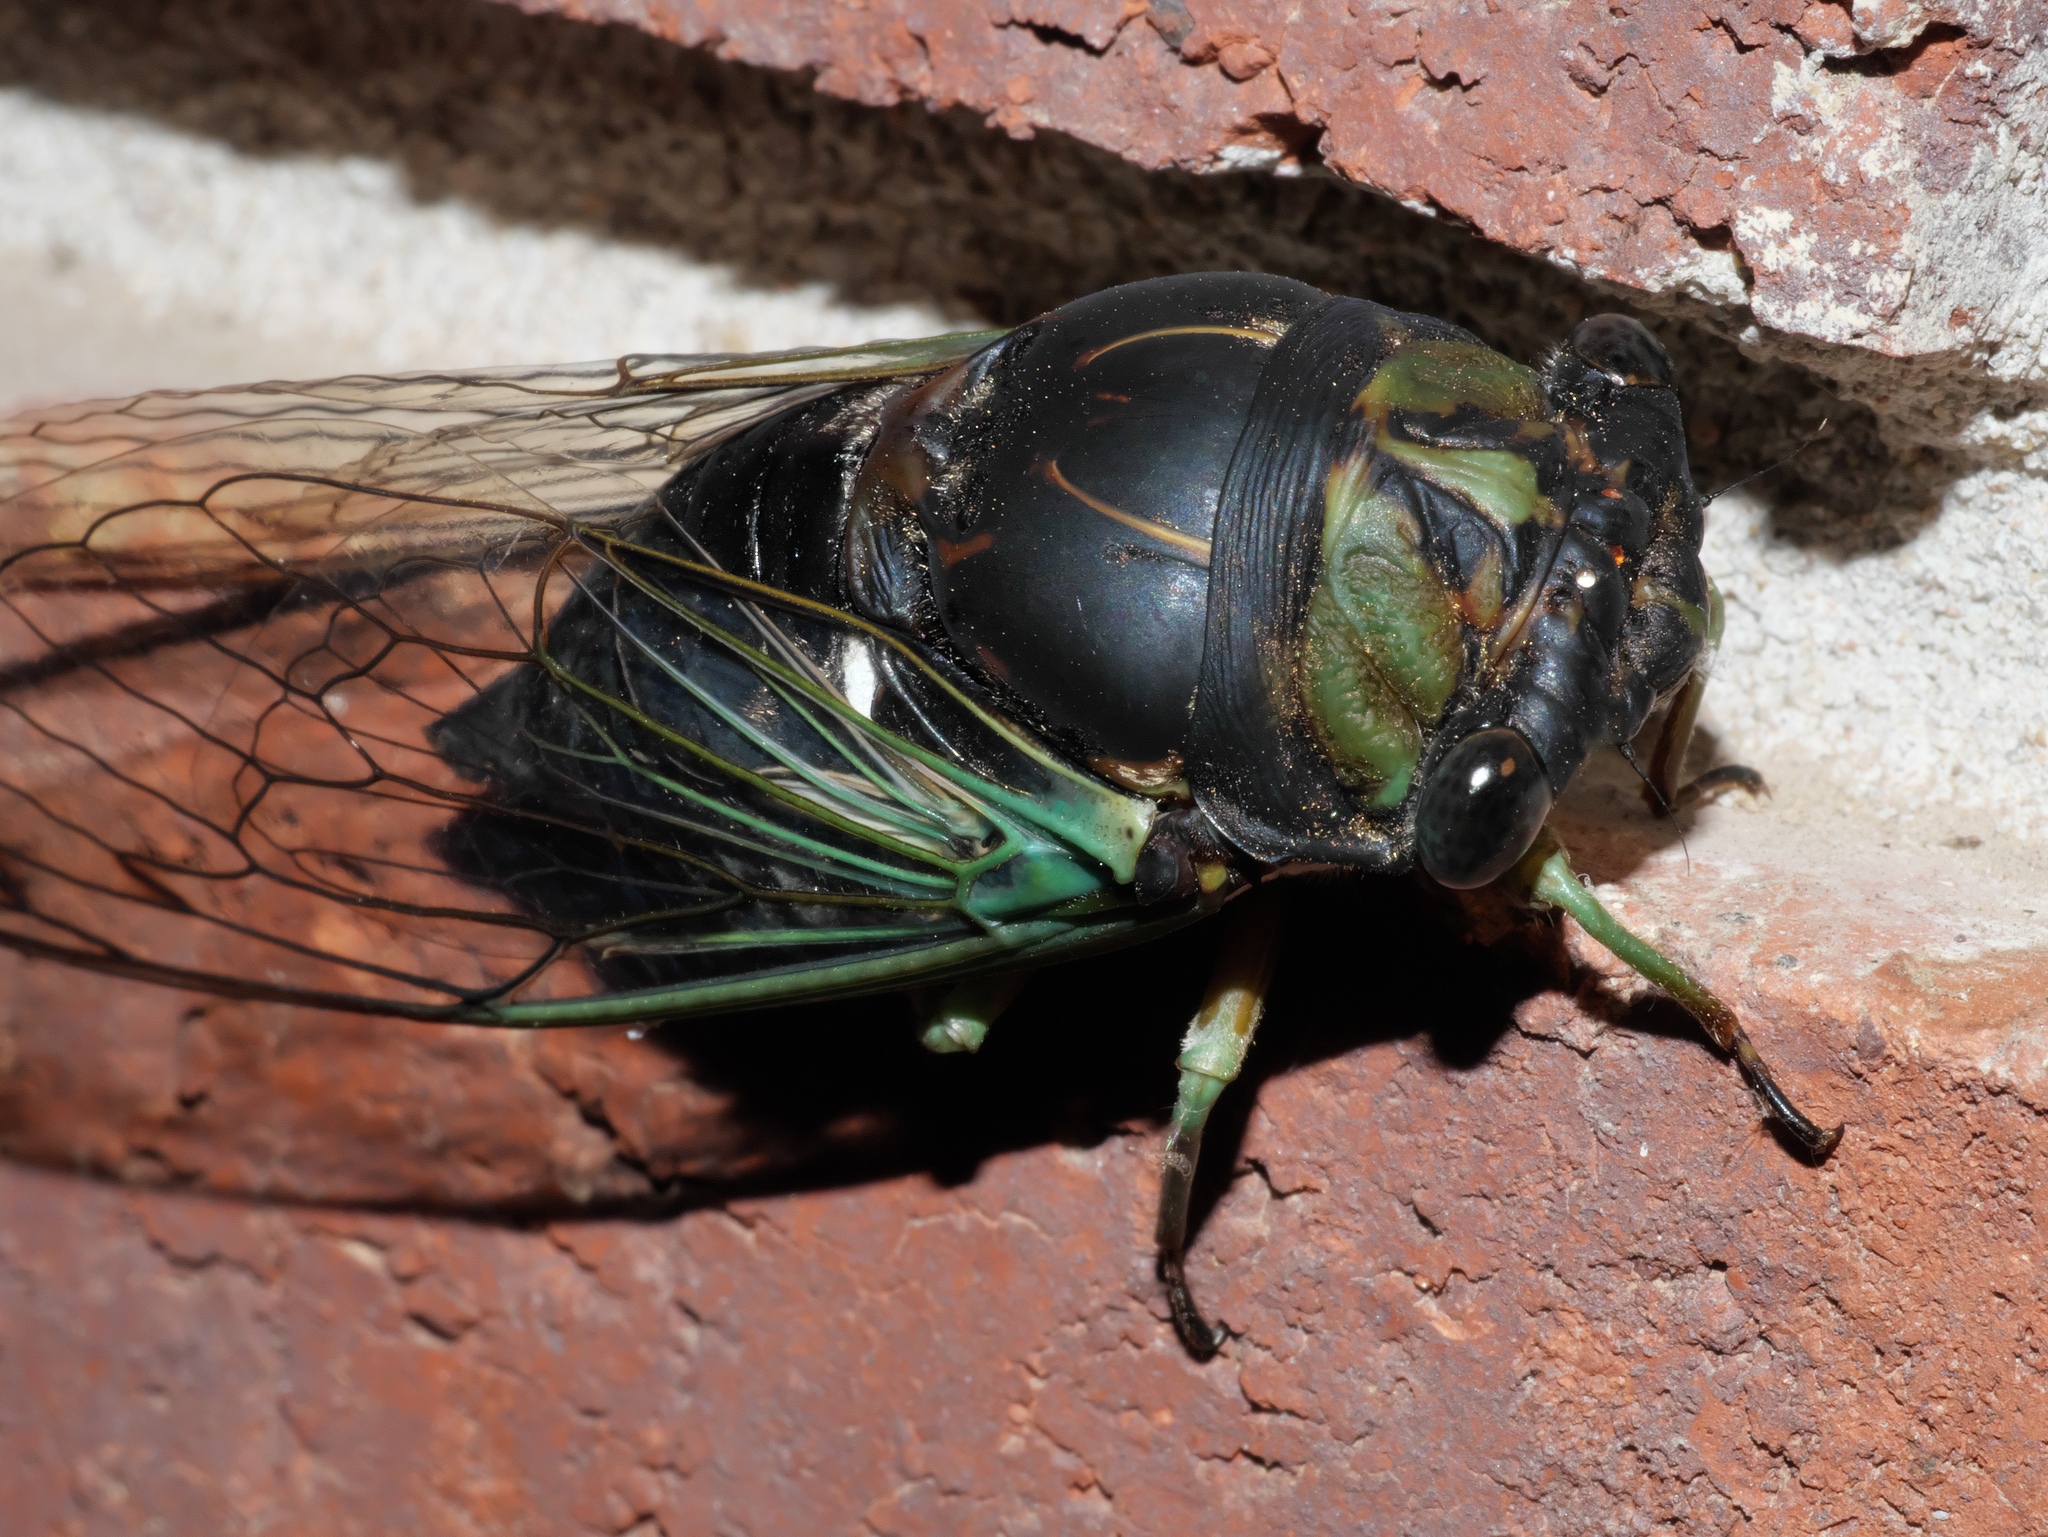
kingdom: Animalia
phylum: Arthropoda
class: Insecta
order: Hemiptera
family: Cicadidae
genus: Neotibicen
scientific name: Neotibicen tibicen
